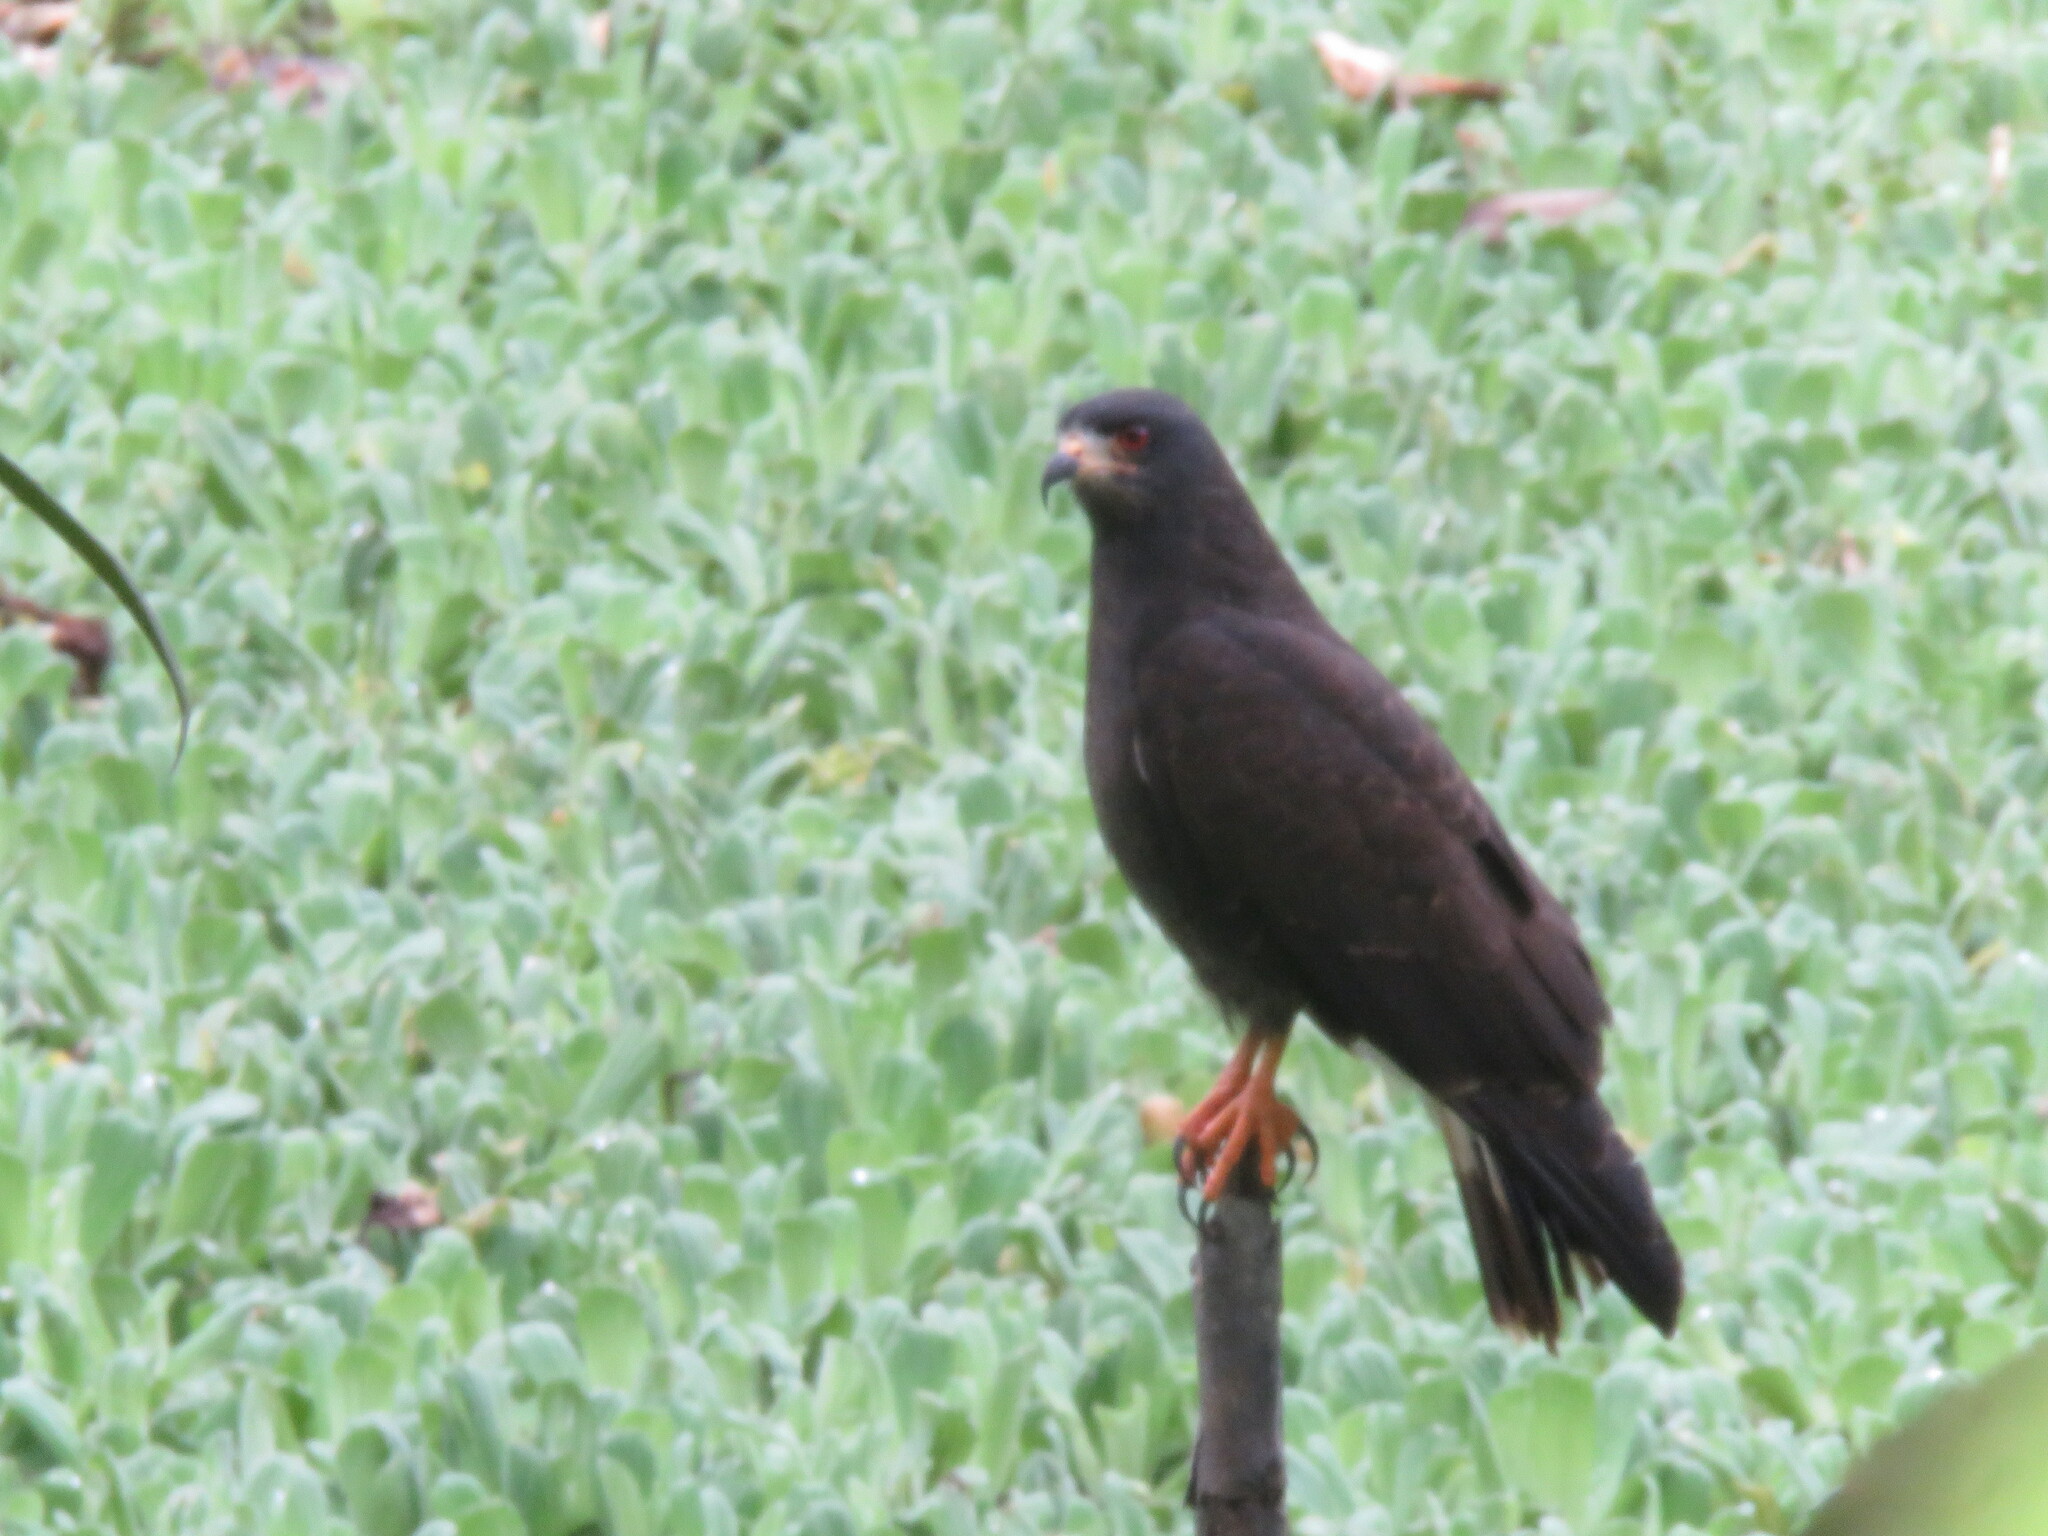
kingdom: Animalia
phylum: Chordata
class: Aves
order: Accipitriformes
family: Accipitridae
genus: Rostrhamus
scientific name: Rostrhamus sociabilis
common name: Snail kite
